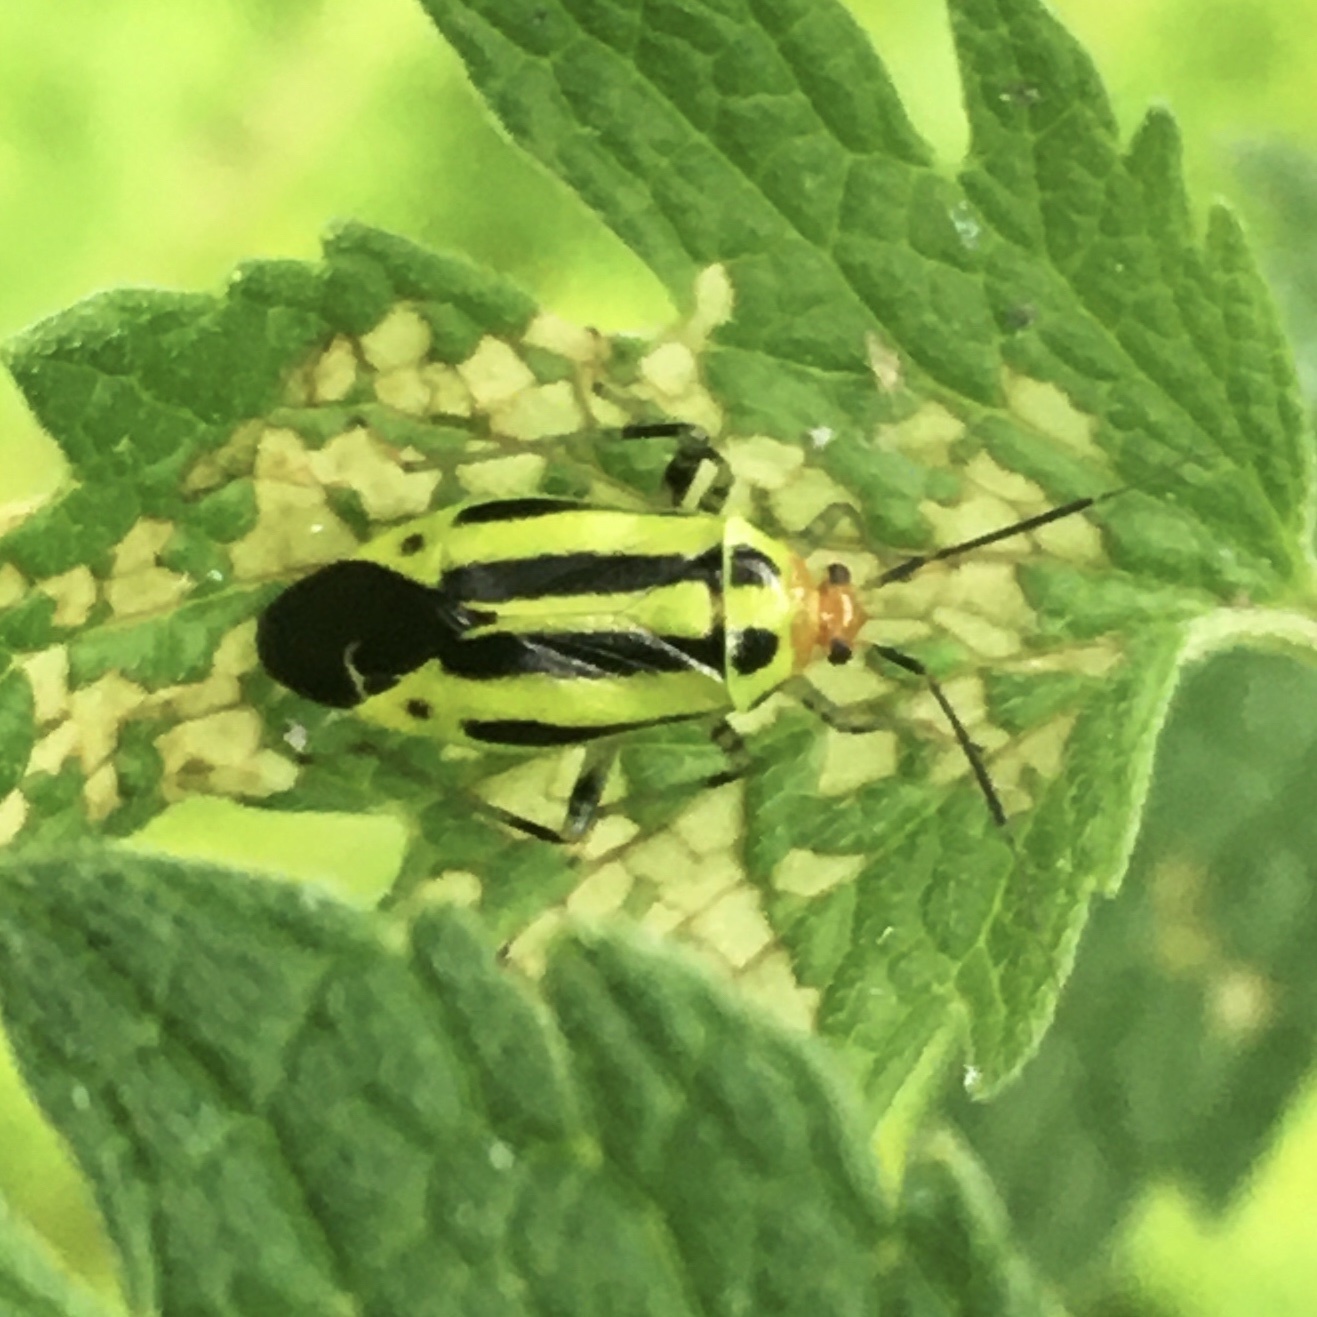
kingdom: Animalia
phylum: Arthropoda
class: Insecta
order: Hemiptera
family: Miridae
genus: Poecilocapsus
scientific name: Poecilocapsus lineatus
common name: Four-lined plant bug
